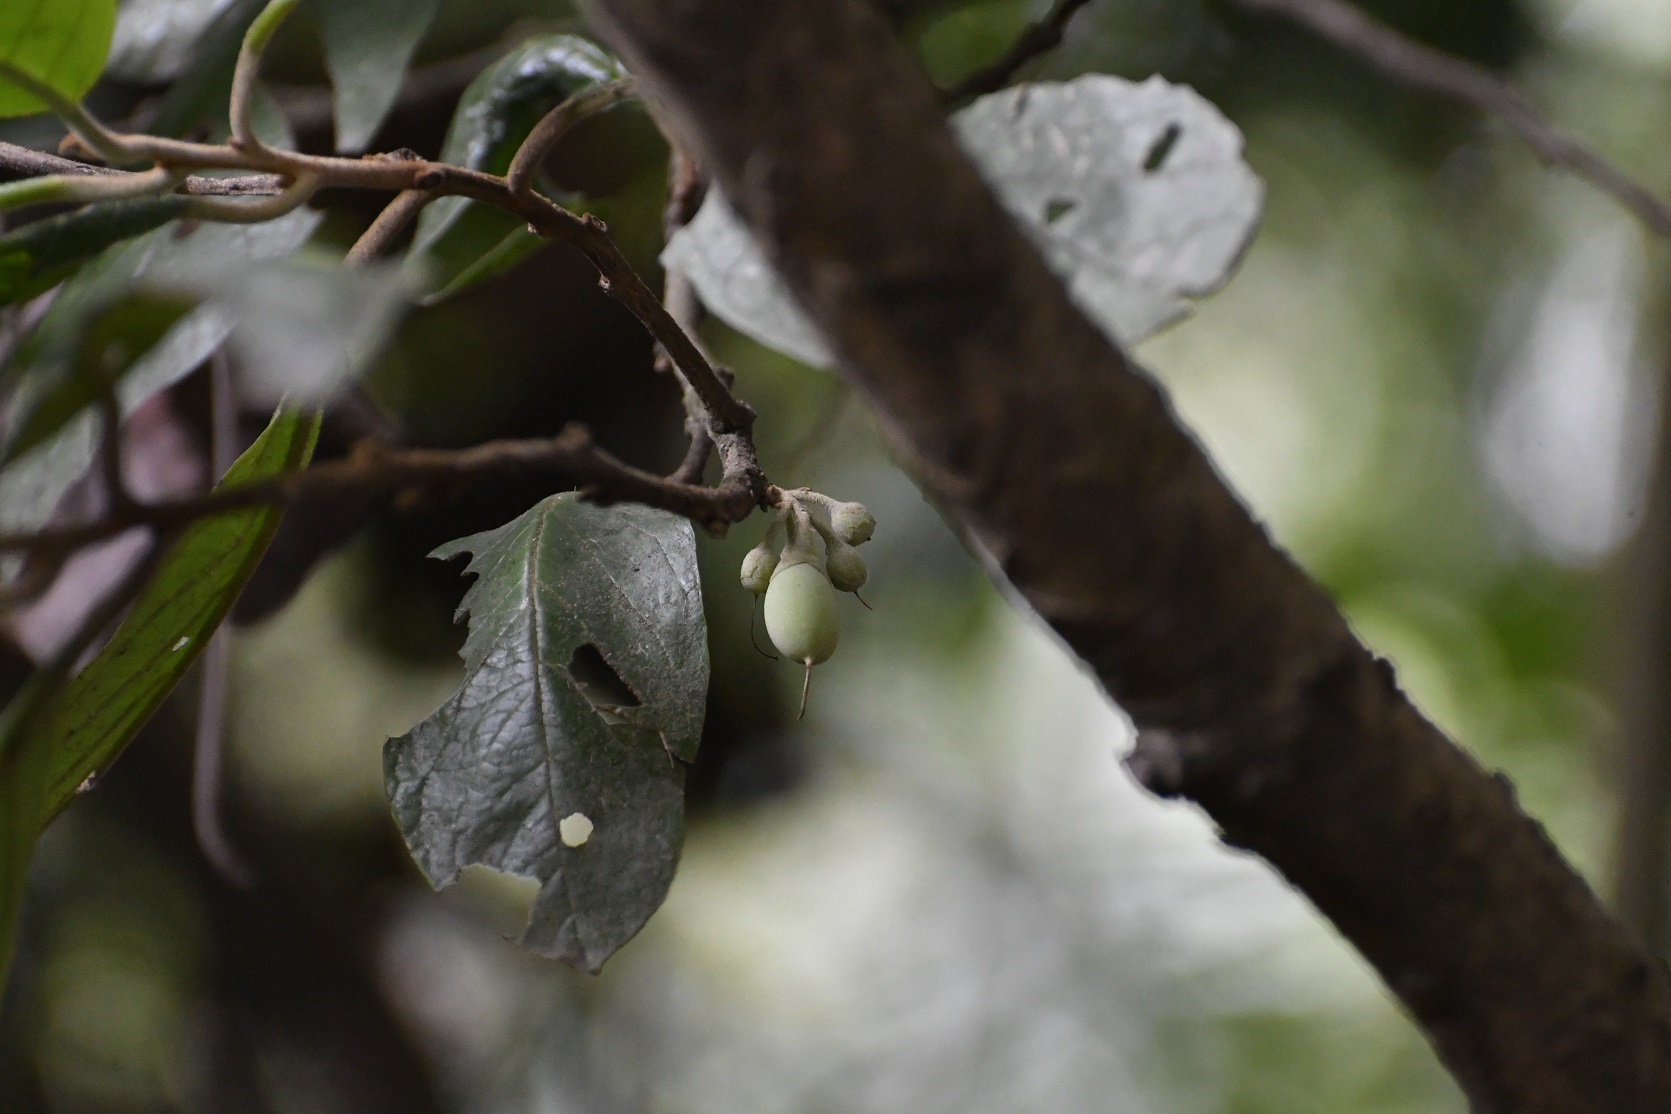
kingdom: Plantae
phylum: Tracheophyta
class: Magnoliopsida
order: Ericales
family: Styracaceae
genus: Styrax
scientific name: Styrax magnus
